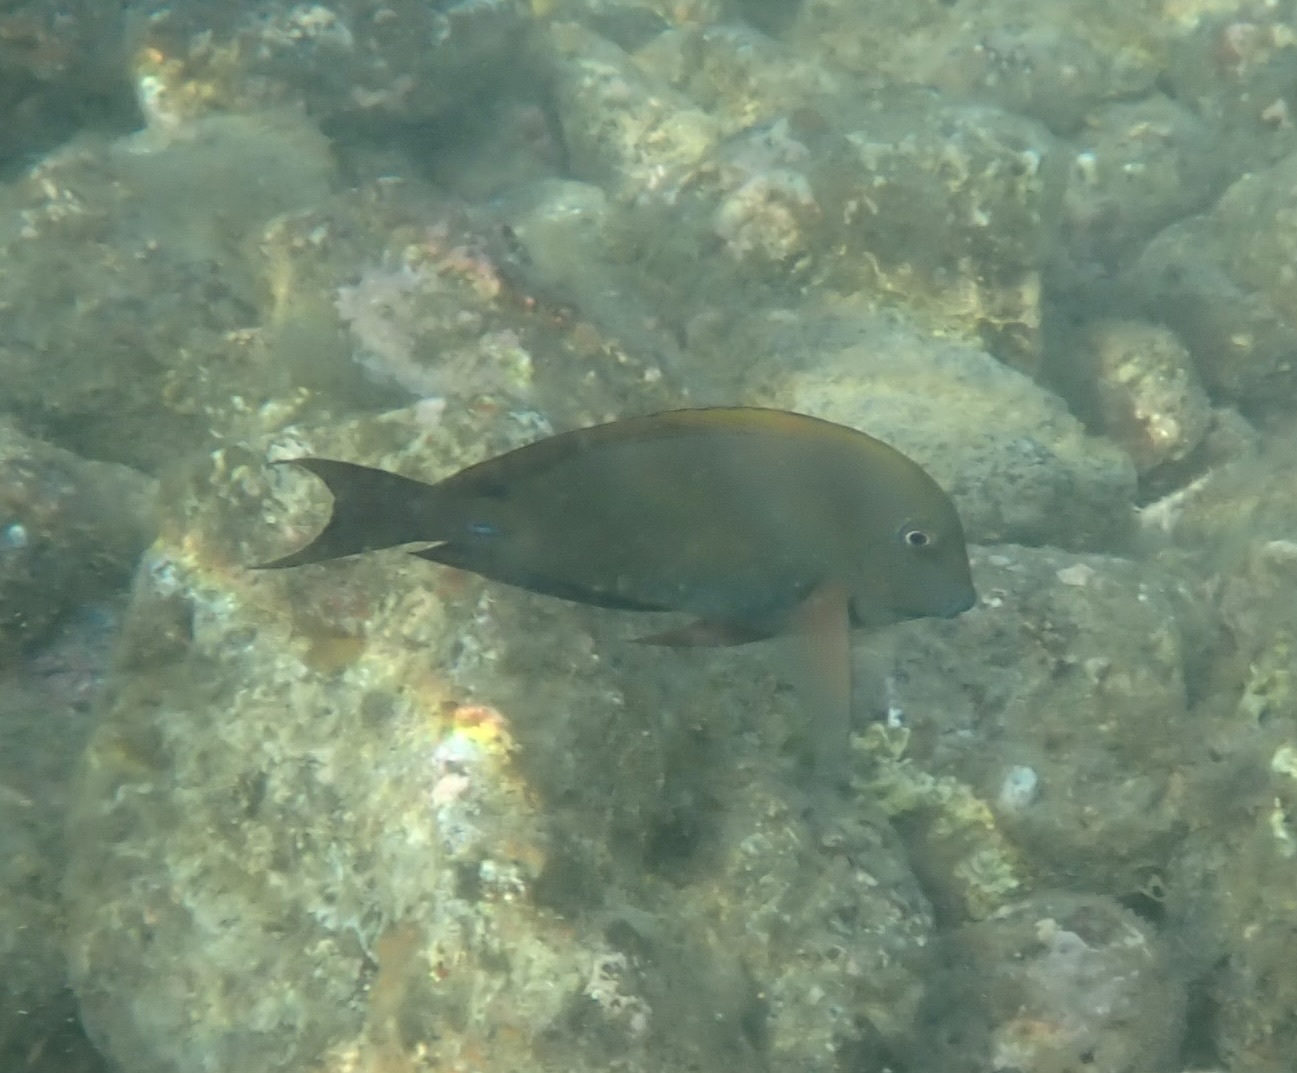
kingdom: Animalia
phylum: Chordata
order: Perciformes
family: Acanthuridae
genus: Acanthurus
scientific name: Acanthurus nigrofuscus
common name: Blackspot surgeonfish
